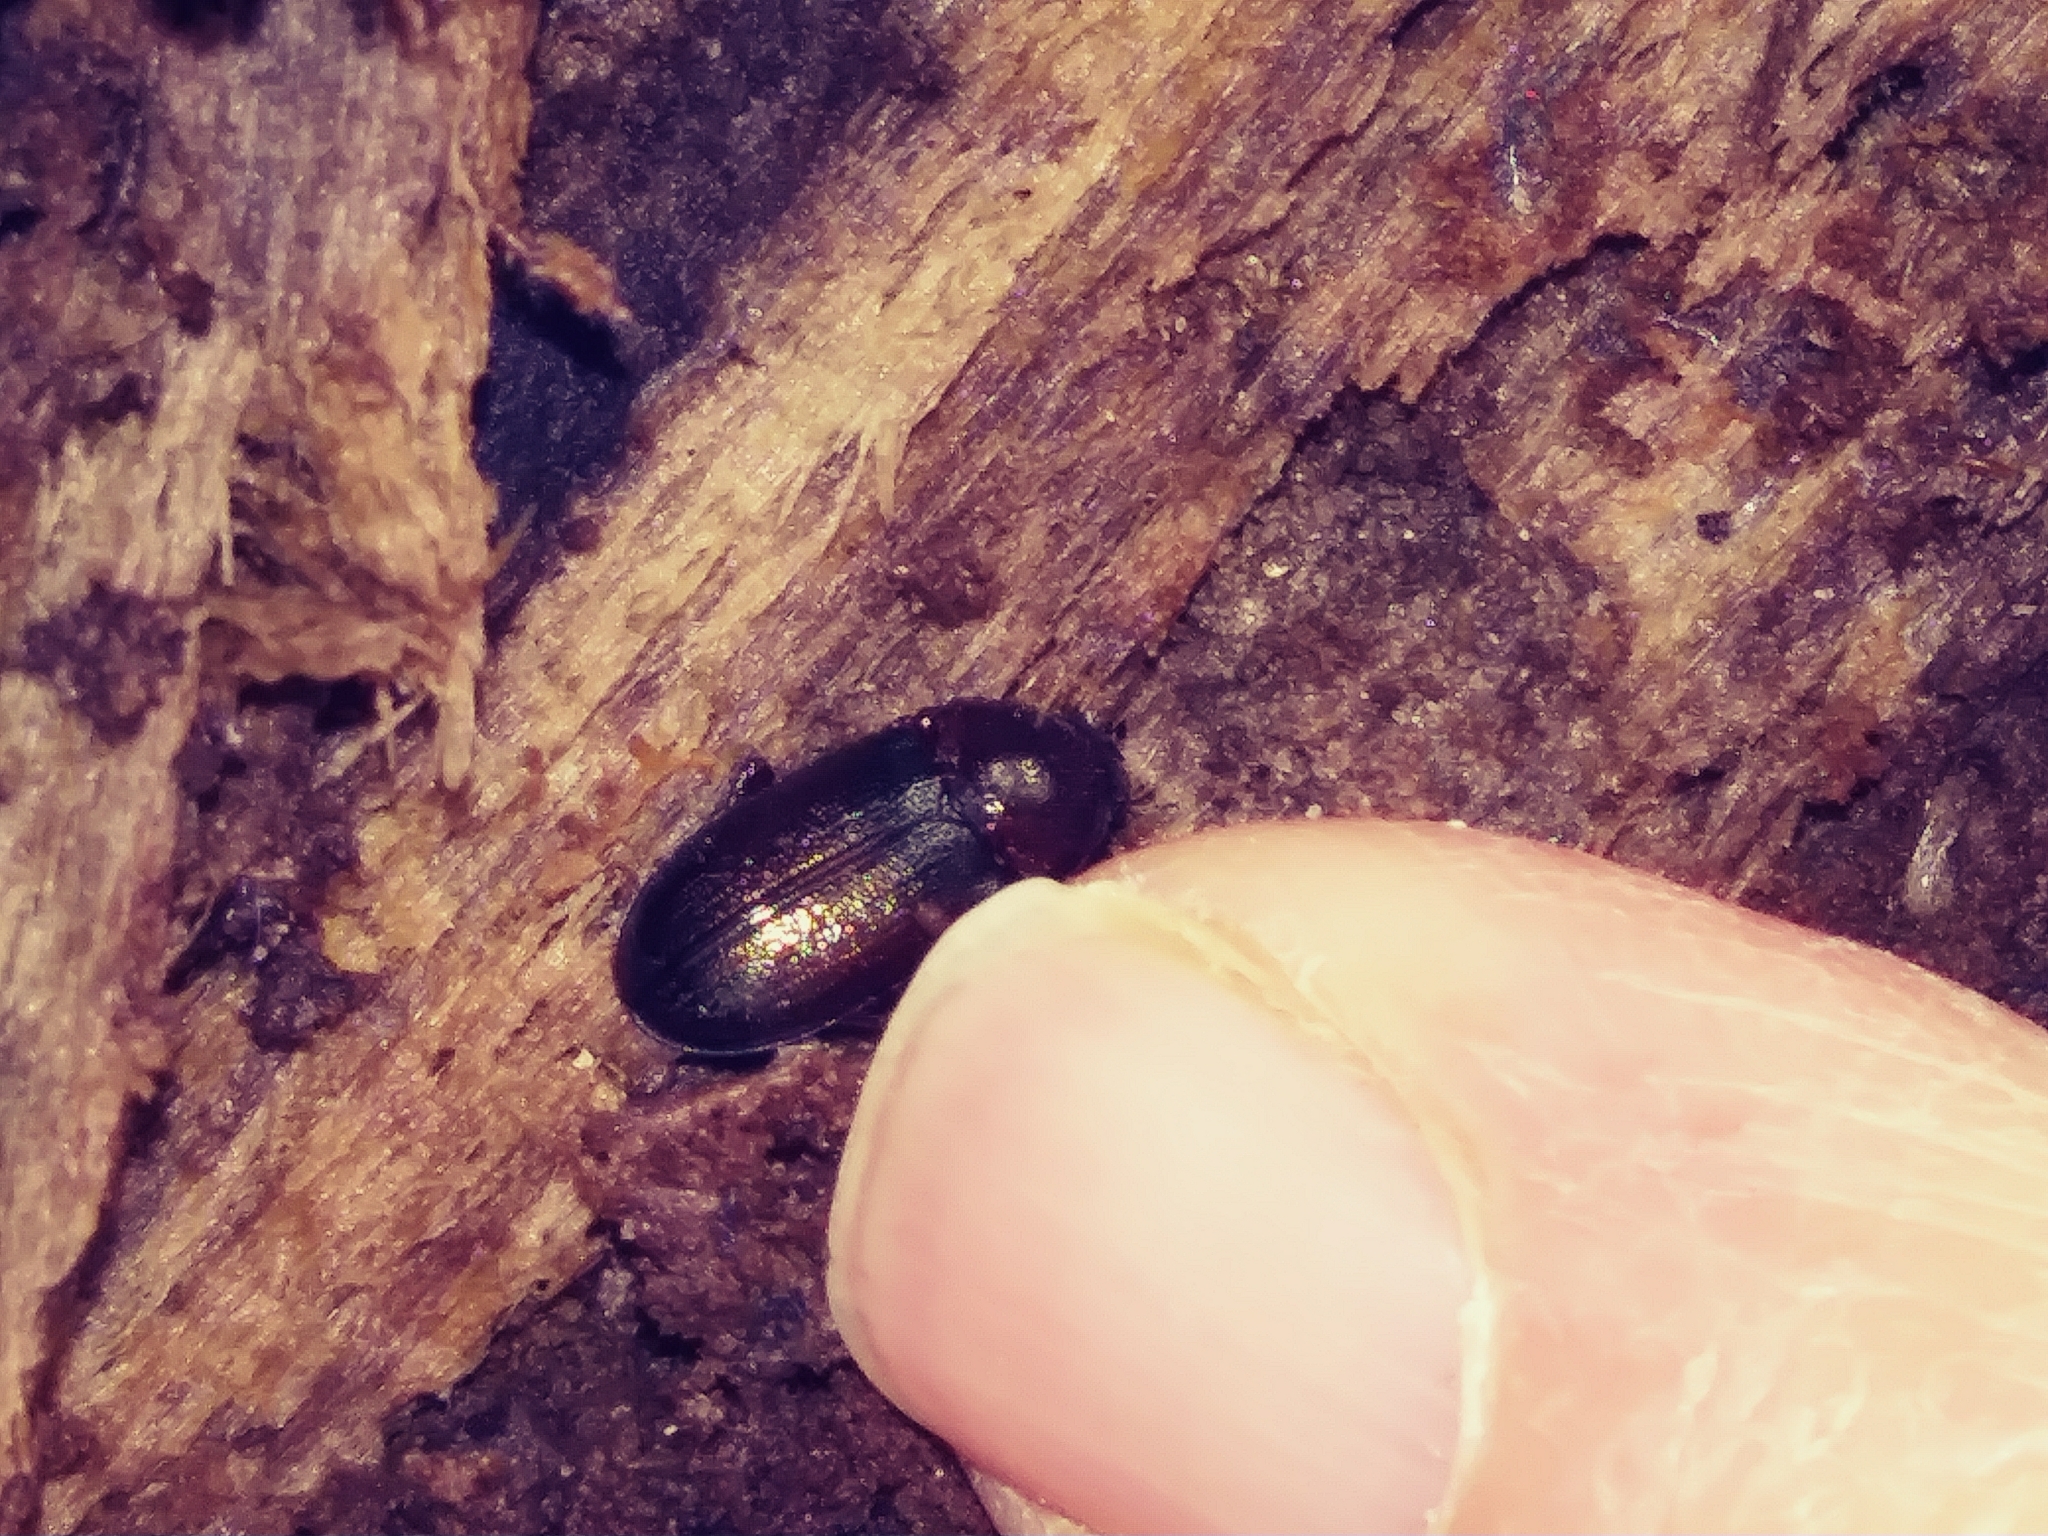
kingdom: Animalia
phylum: Arthropoda
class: Insecta
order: Coleoptera
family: Lucanidae
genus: Ceruchus
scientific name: Ceruchus piceus
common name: Red-rot decay stag beetle
